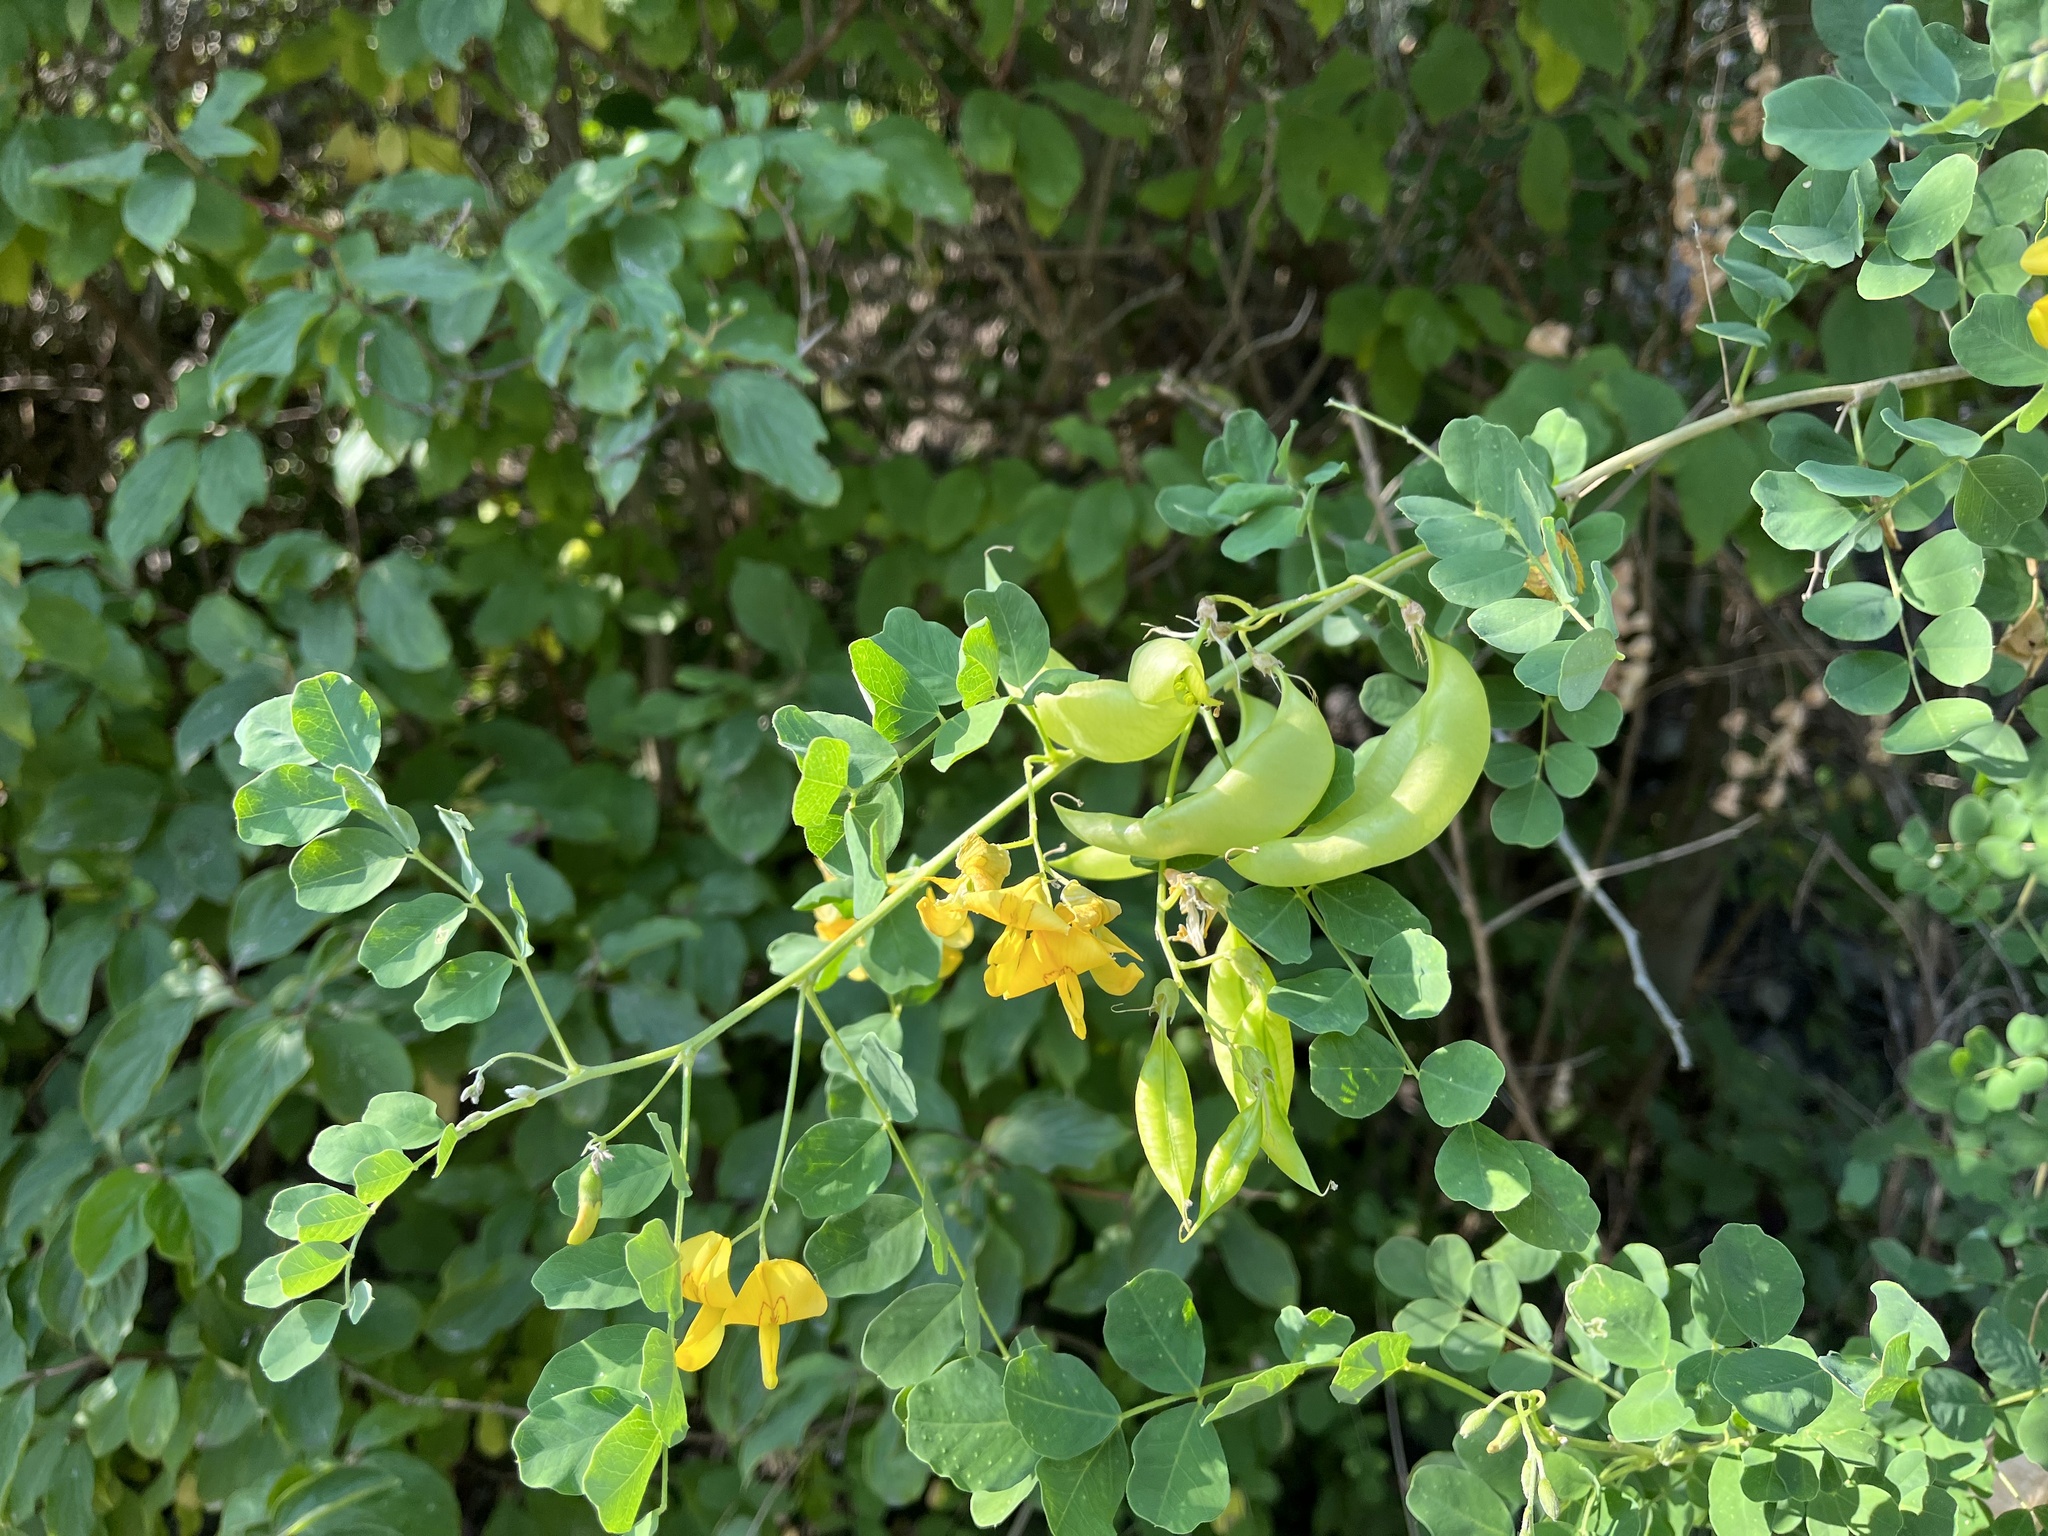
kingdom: Plantae
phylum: Tracheophyta
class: Magnoliopsida
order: Fabales
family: Fabaceae
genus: Colutea
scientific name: Colutea arborescens
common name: Bladder-senna
